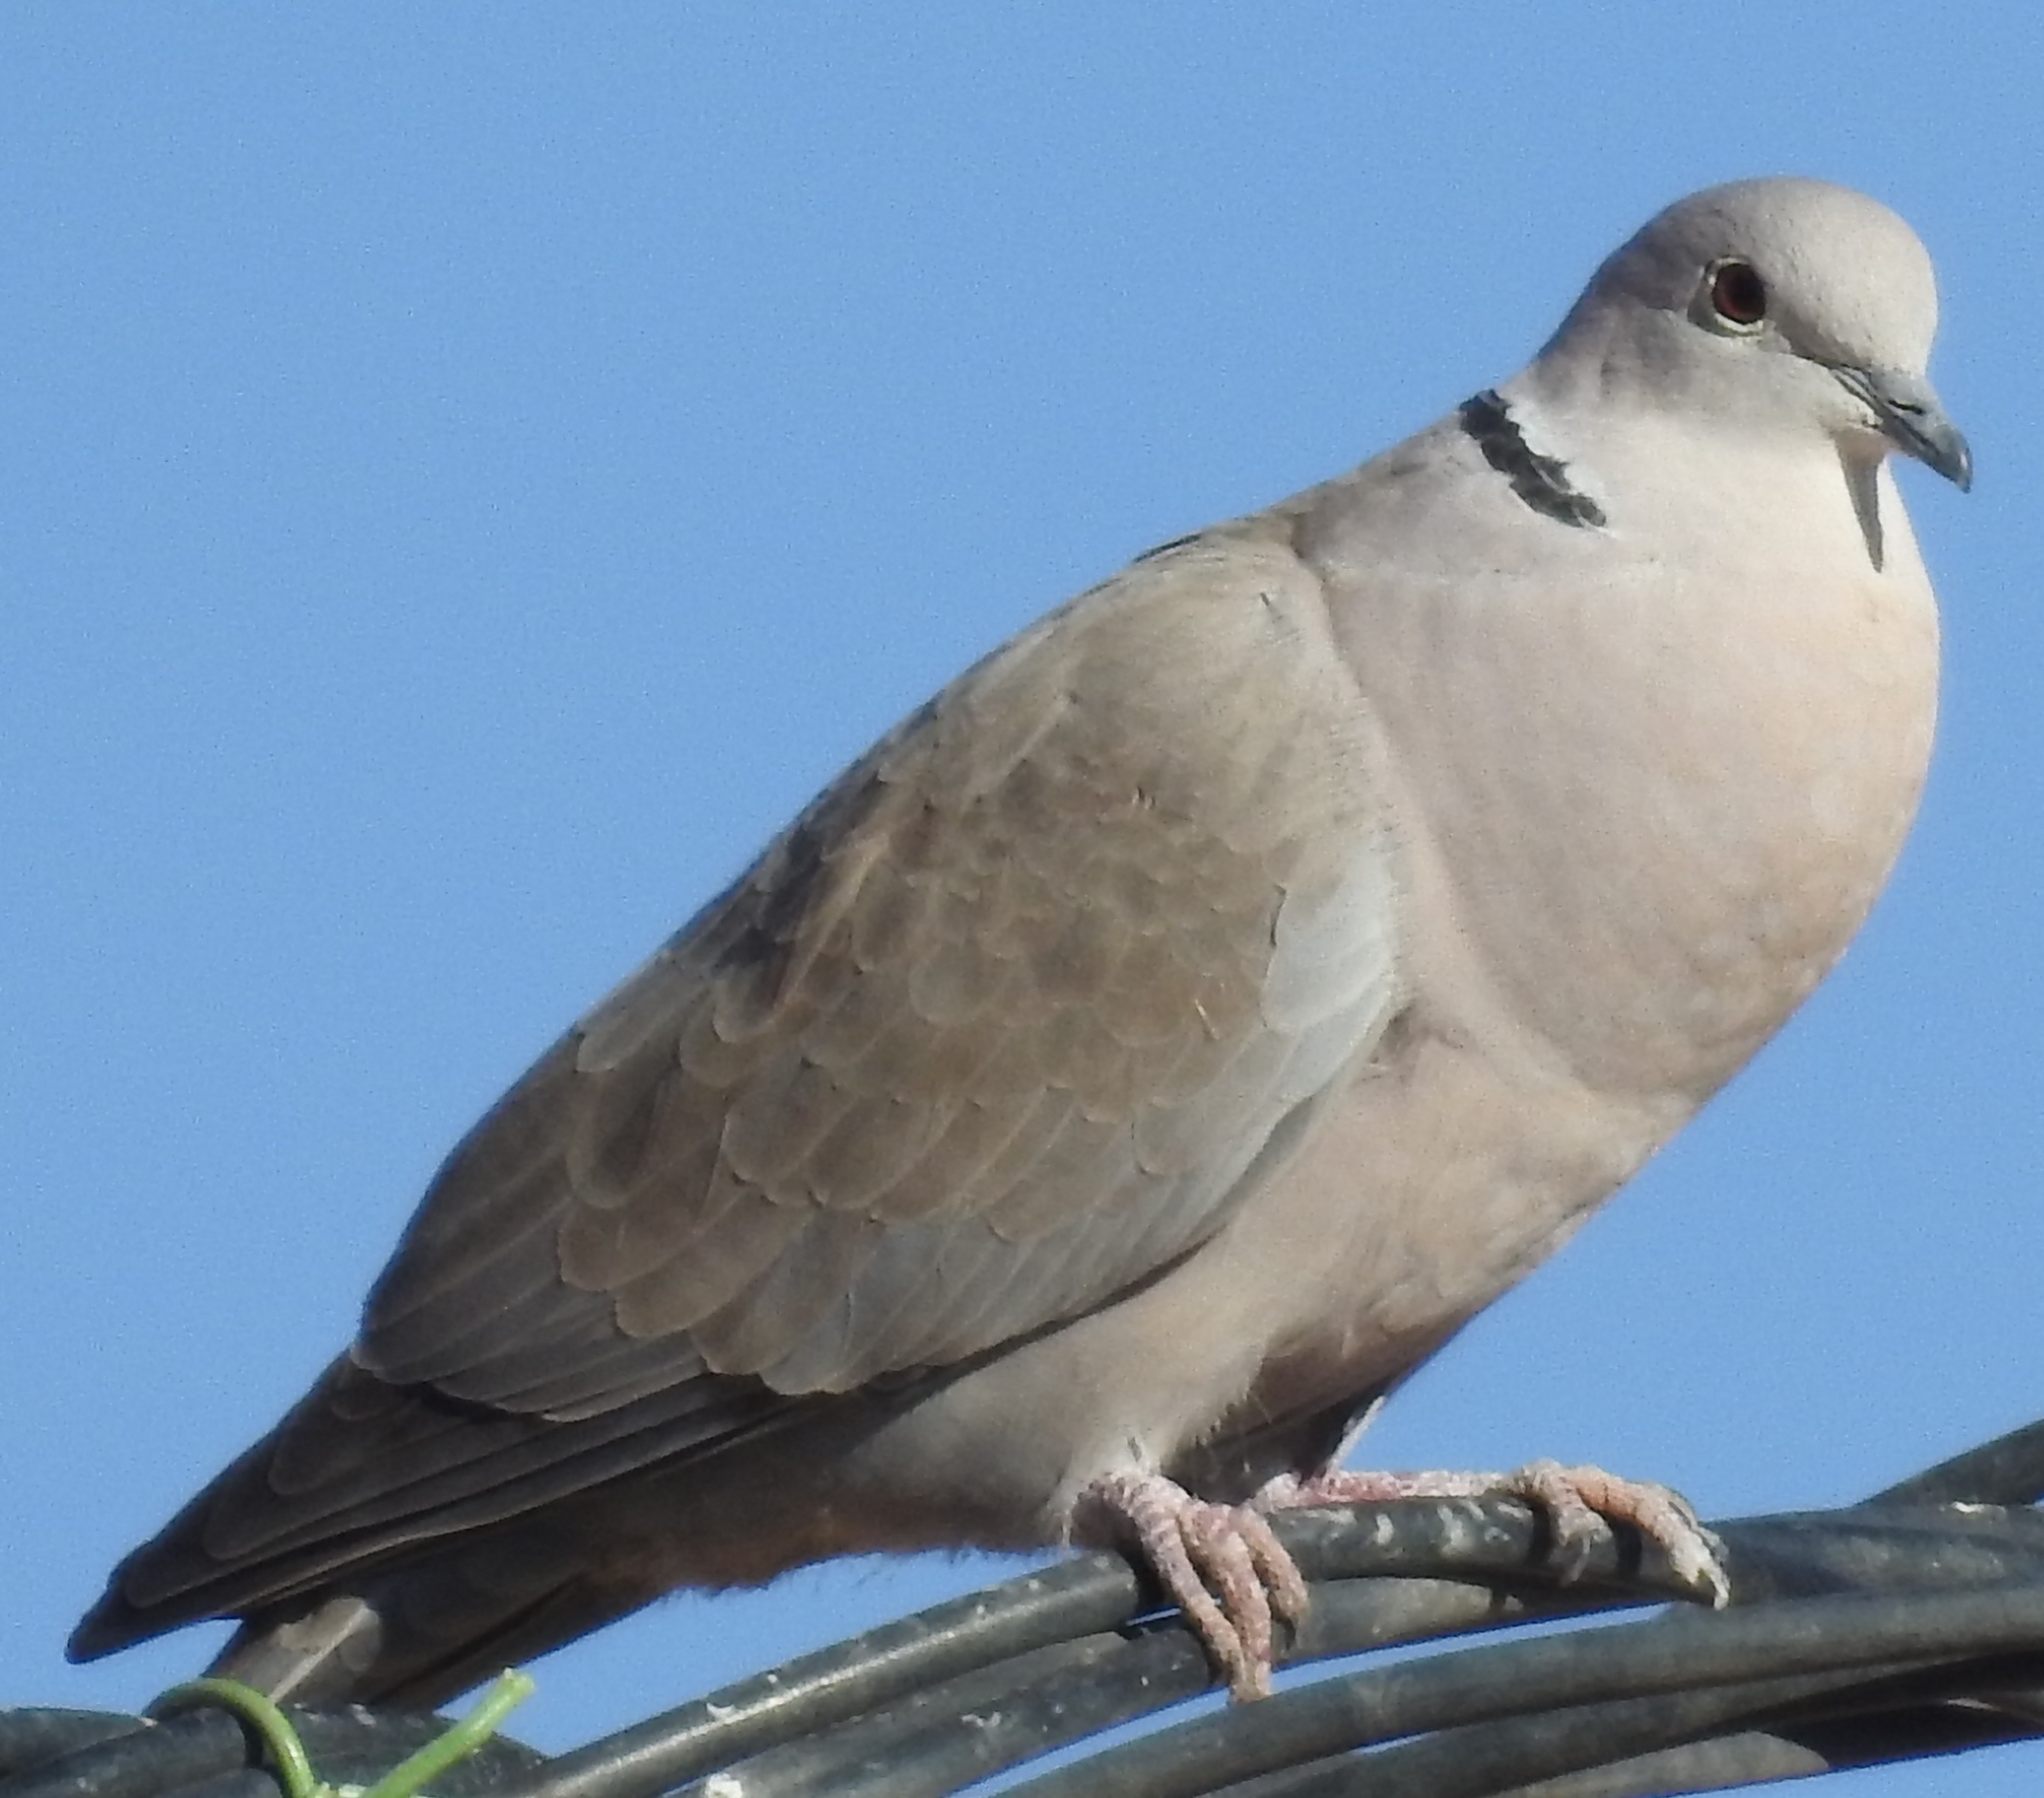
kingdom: Animalia
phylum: Chordata
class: Aves
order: Columbiformes
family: Columbidae
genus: Streptopelia
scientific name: Streptopelia decaocto
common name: Eurasian collared dove
